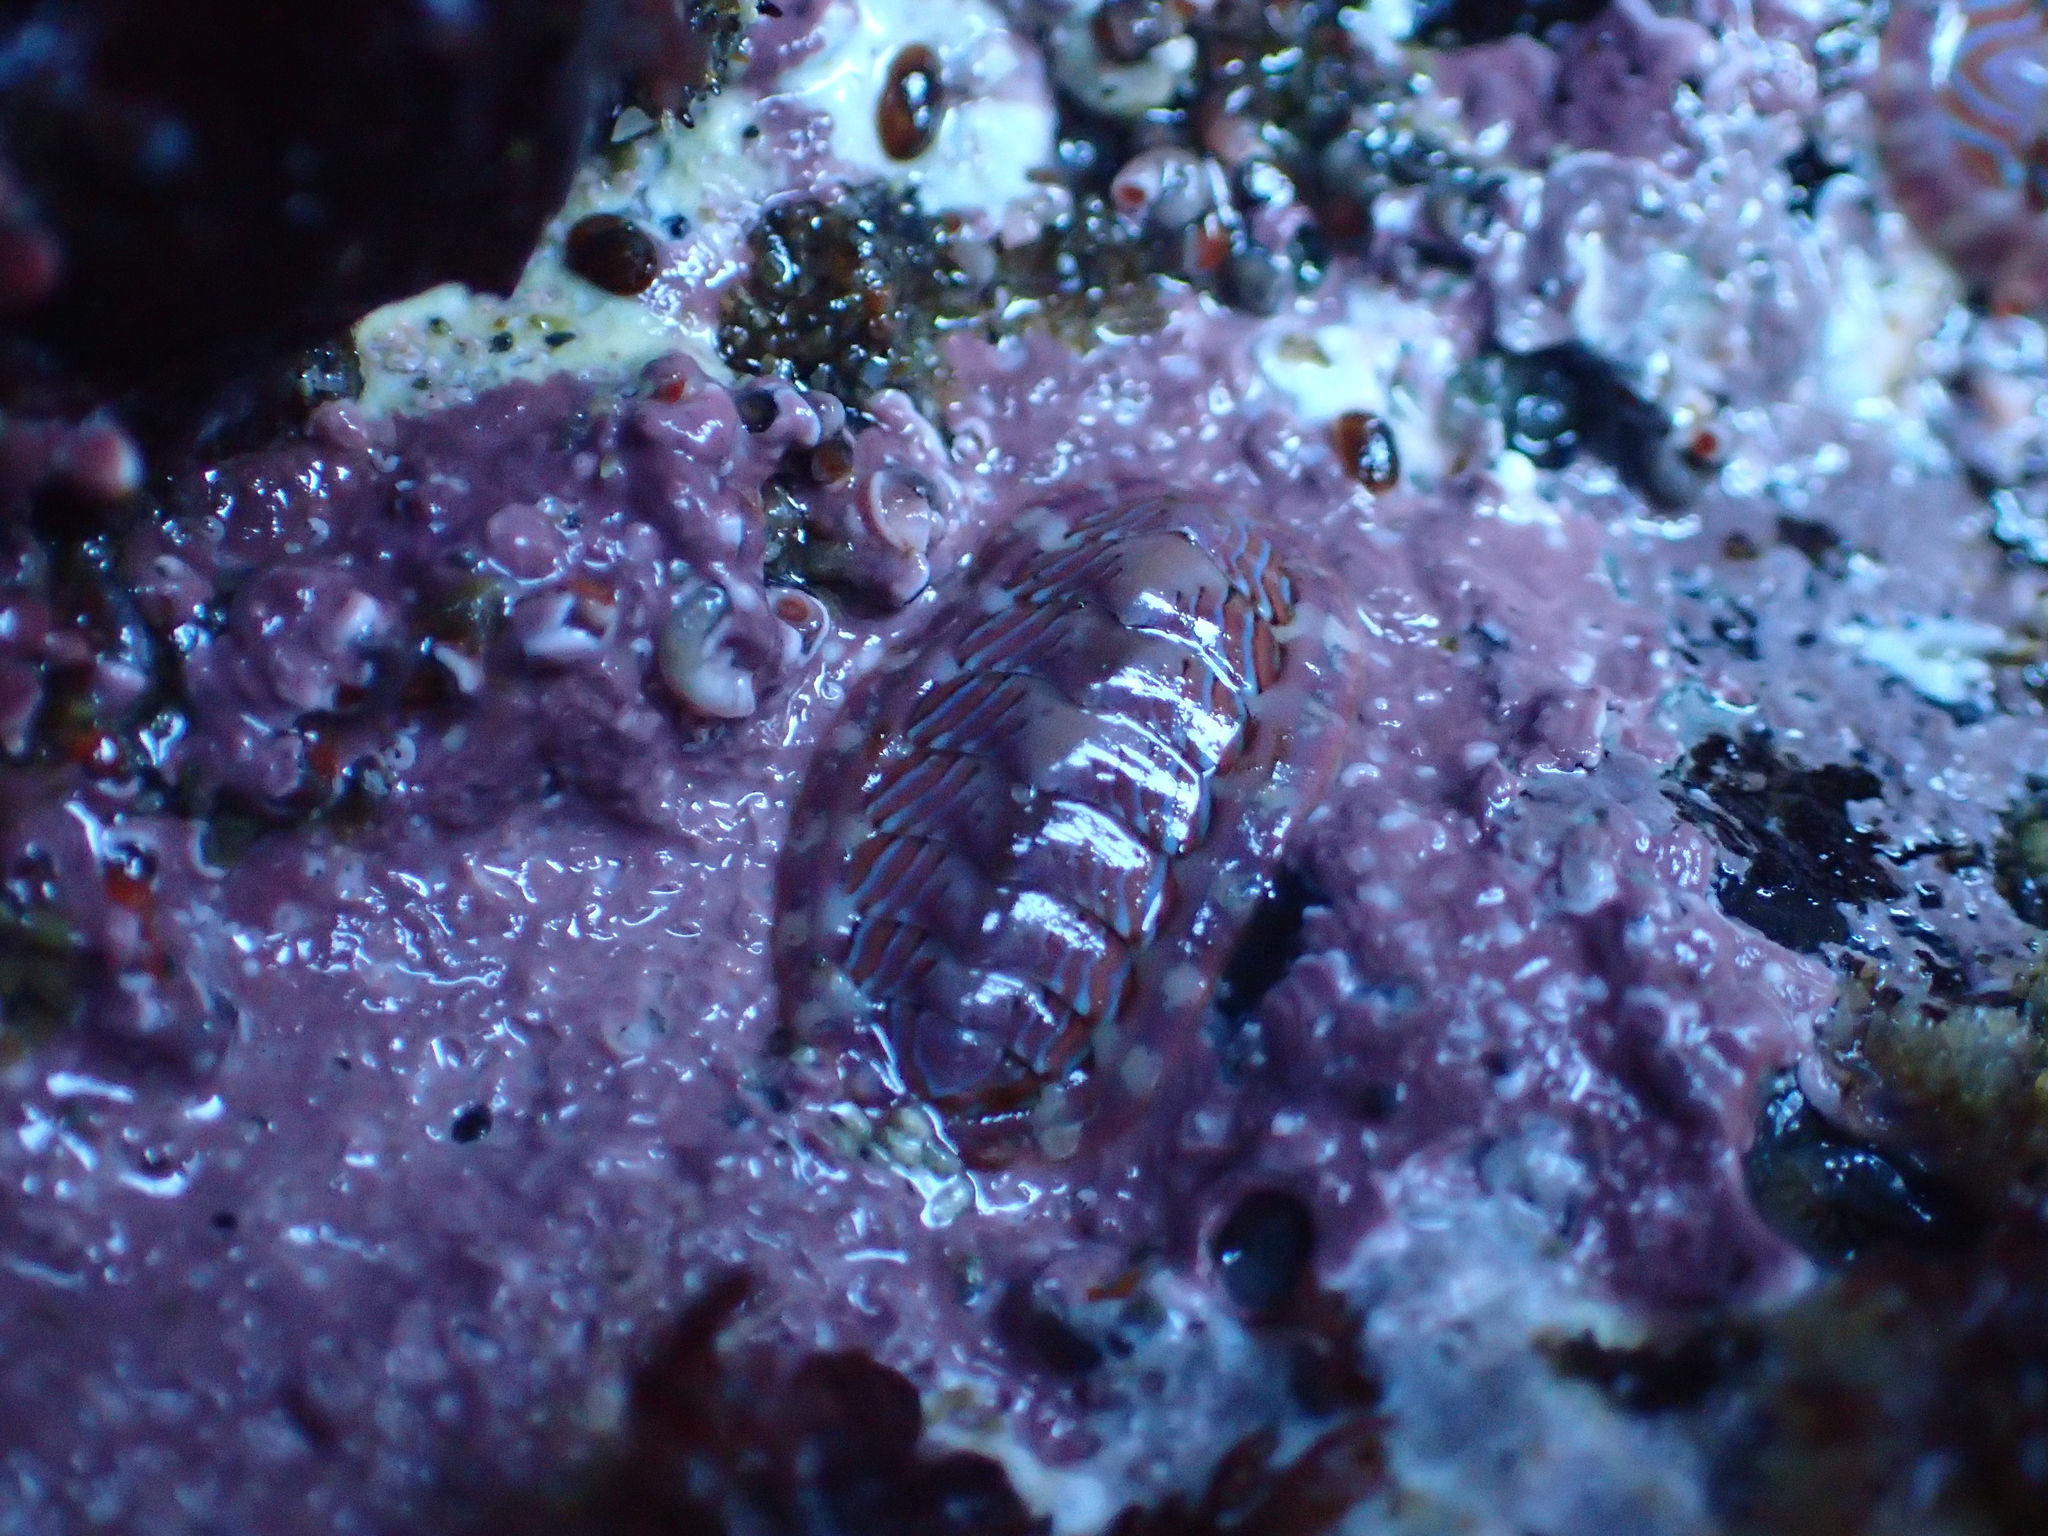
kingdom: Animalia
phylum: Mollusca
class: Polyplacophora
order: Chitonida
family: Tonicellidae
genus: Tonicella
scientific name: Tonicella lineata
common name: Lined chiton
